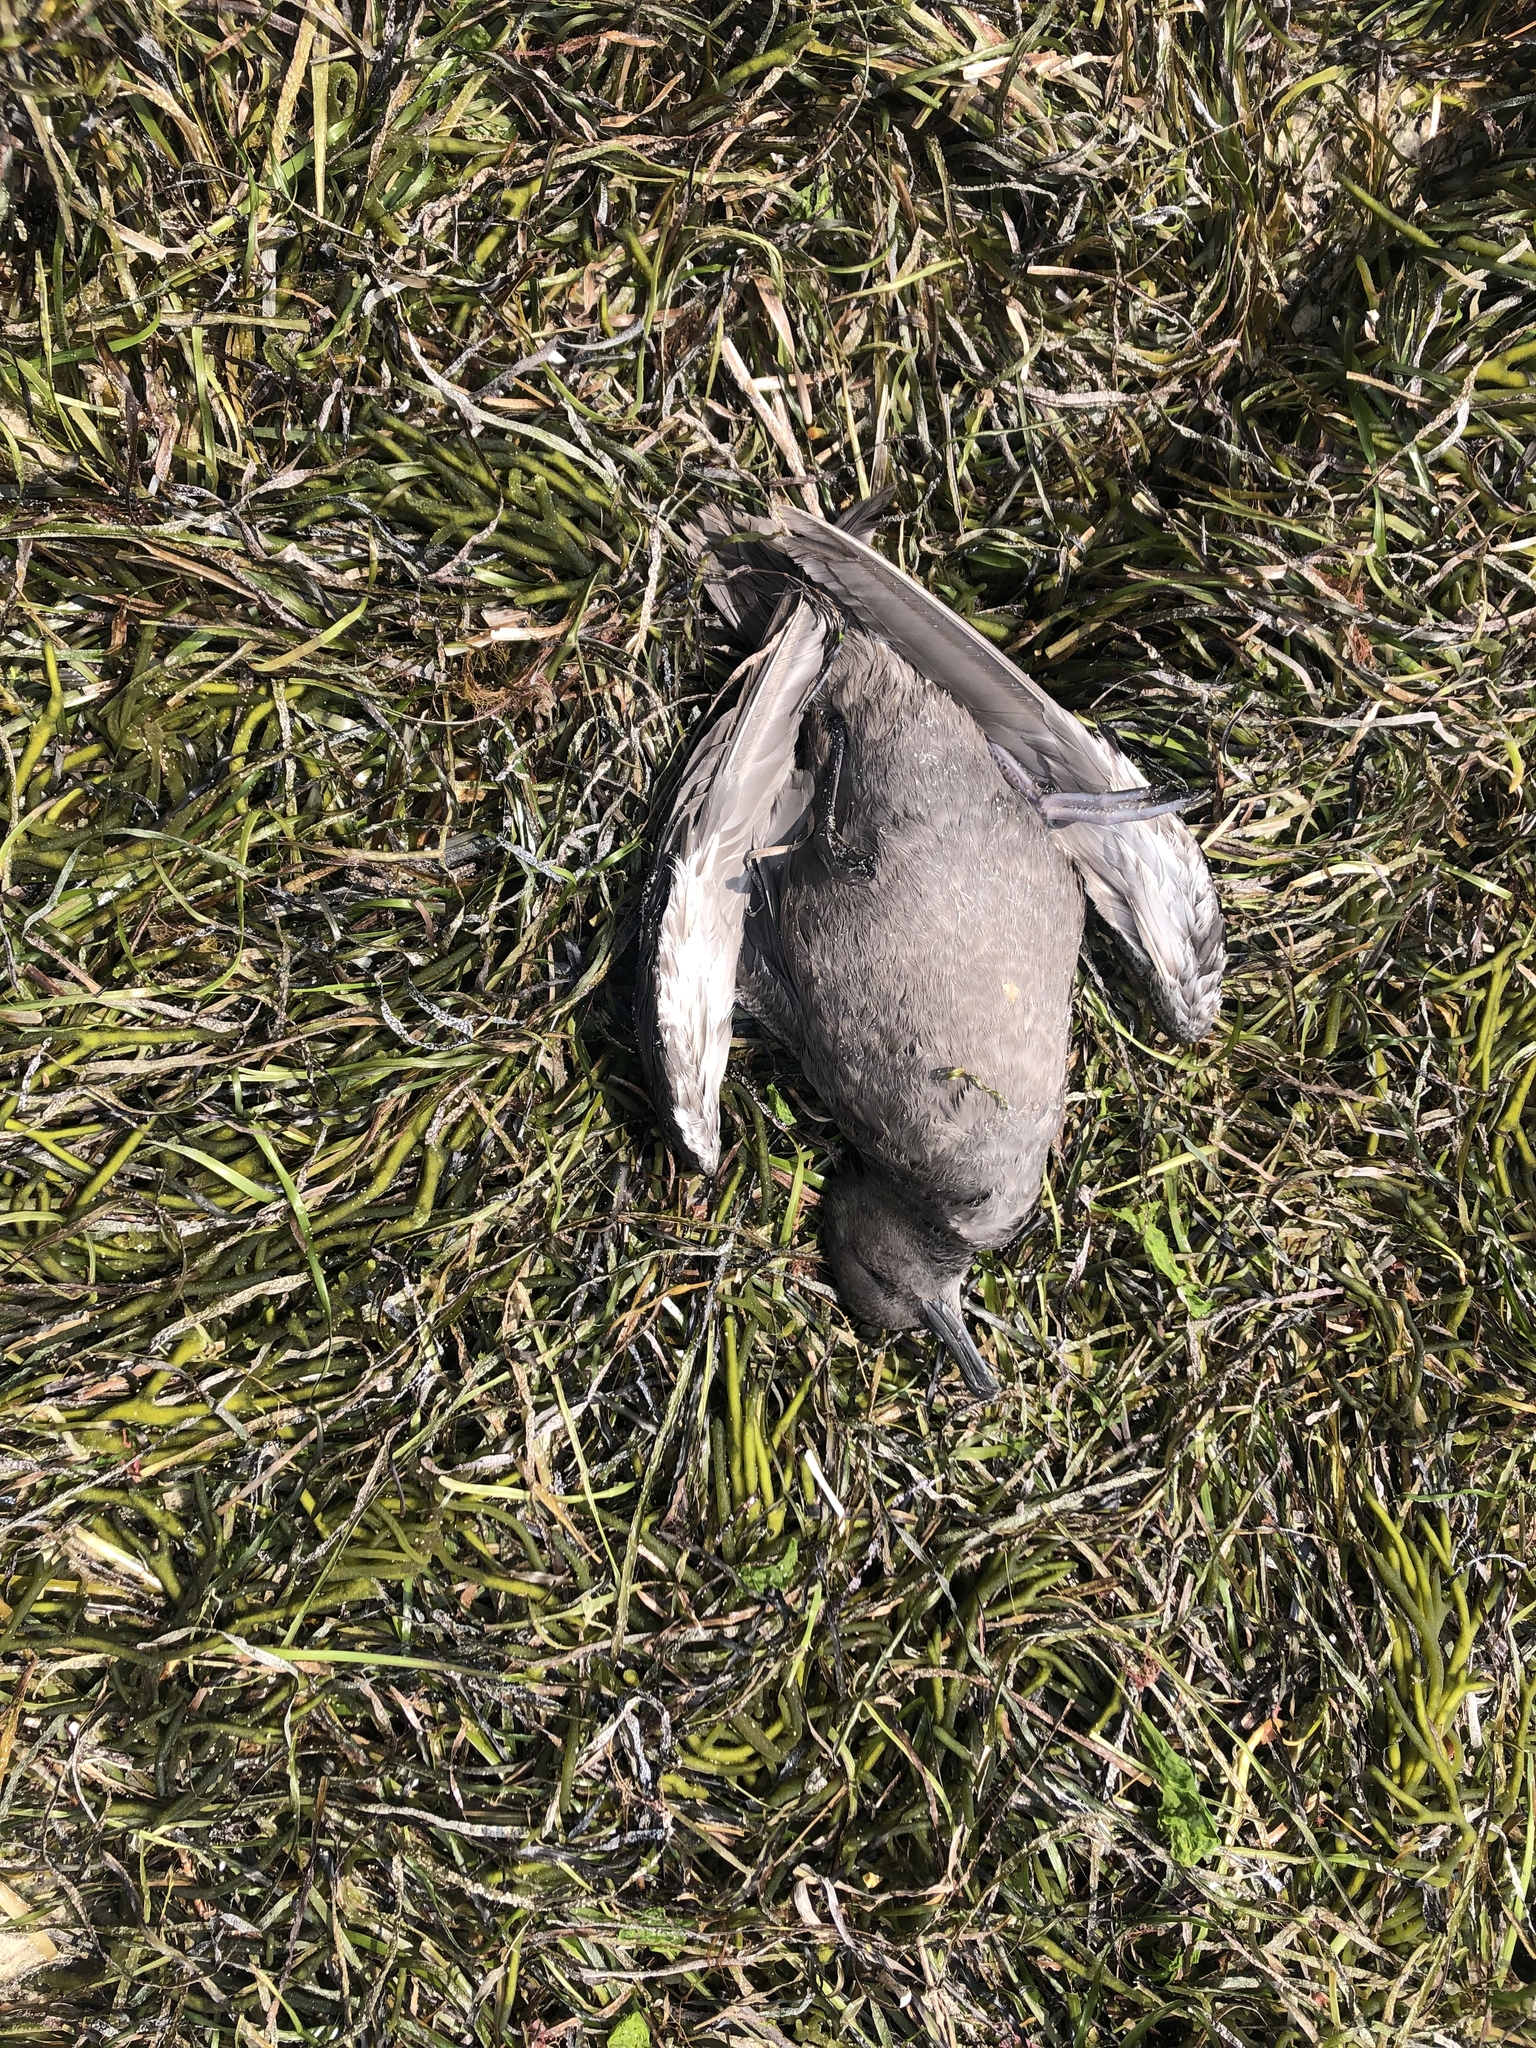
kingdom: Animalia
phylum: Chordata
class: Aves
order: Procellariiformes
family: Procellariidae
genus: Puffinus
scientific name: Puffinus griseus
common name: Sooty shearwater
